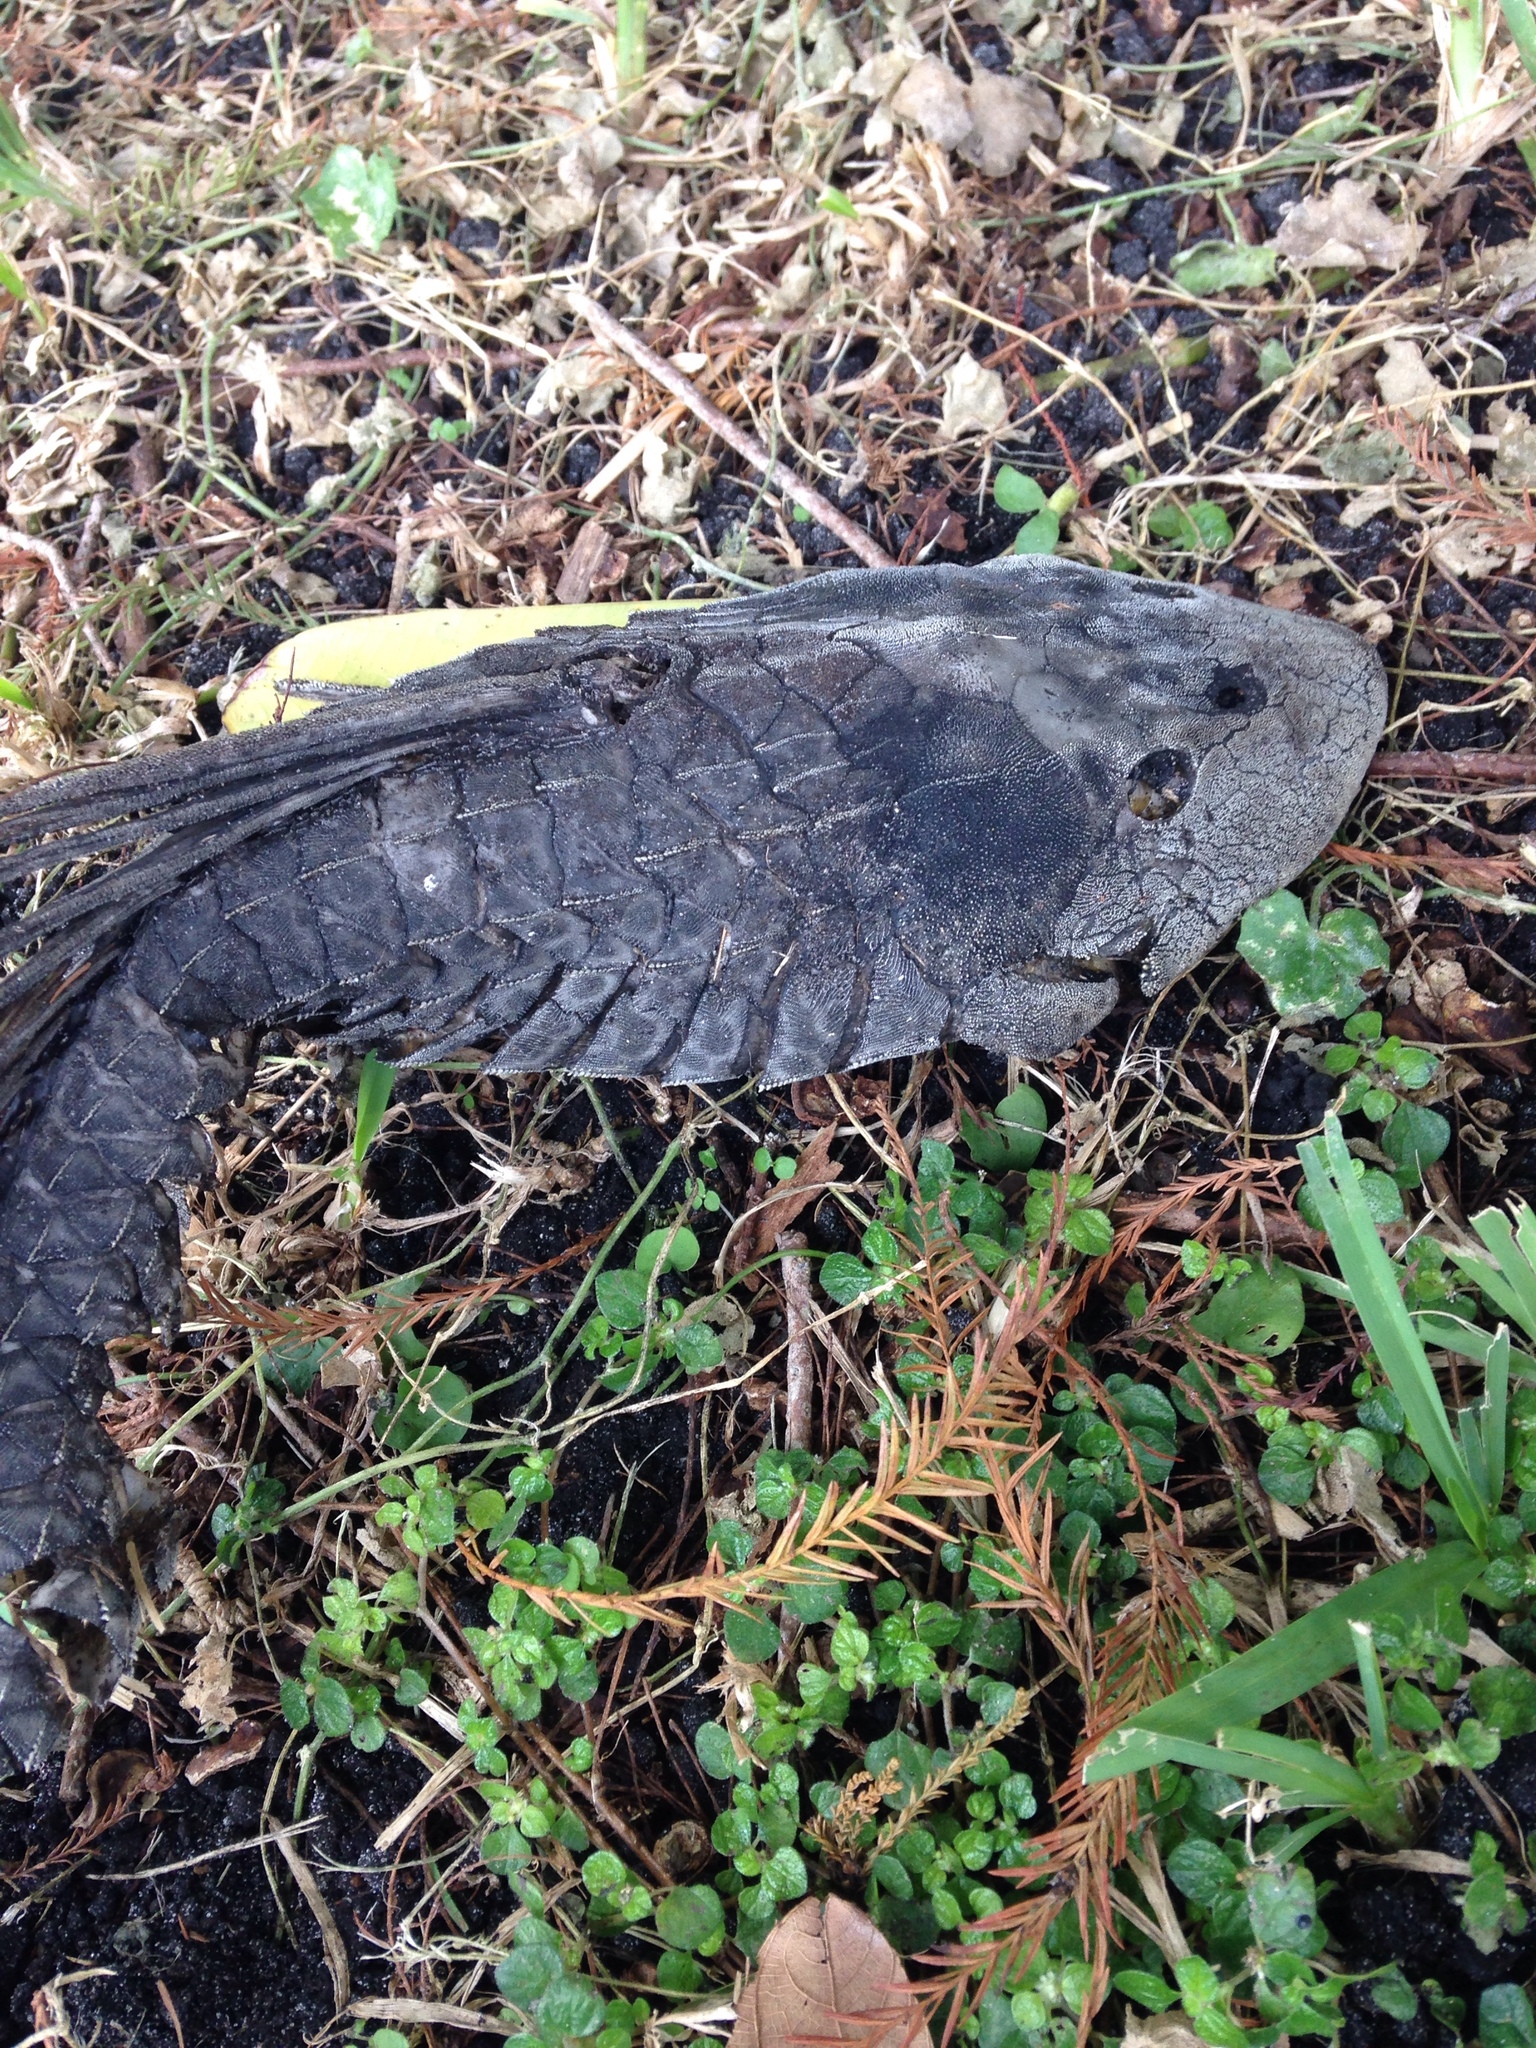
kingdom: Animalia
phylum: Chordata
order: Siluriformes
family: Loricariidae
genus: Pterygoplichthys
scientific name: Pterygoplichthys
